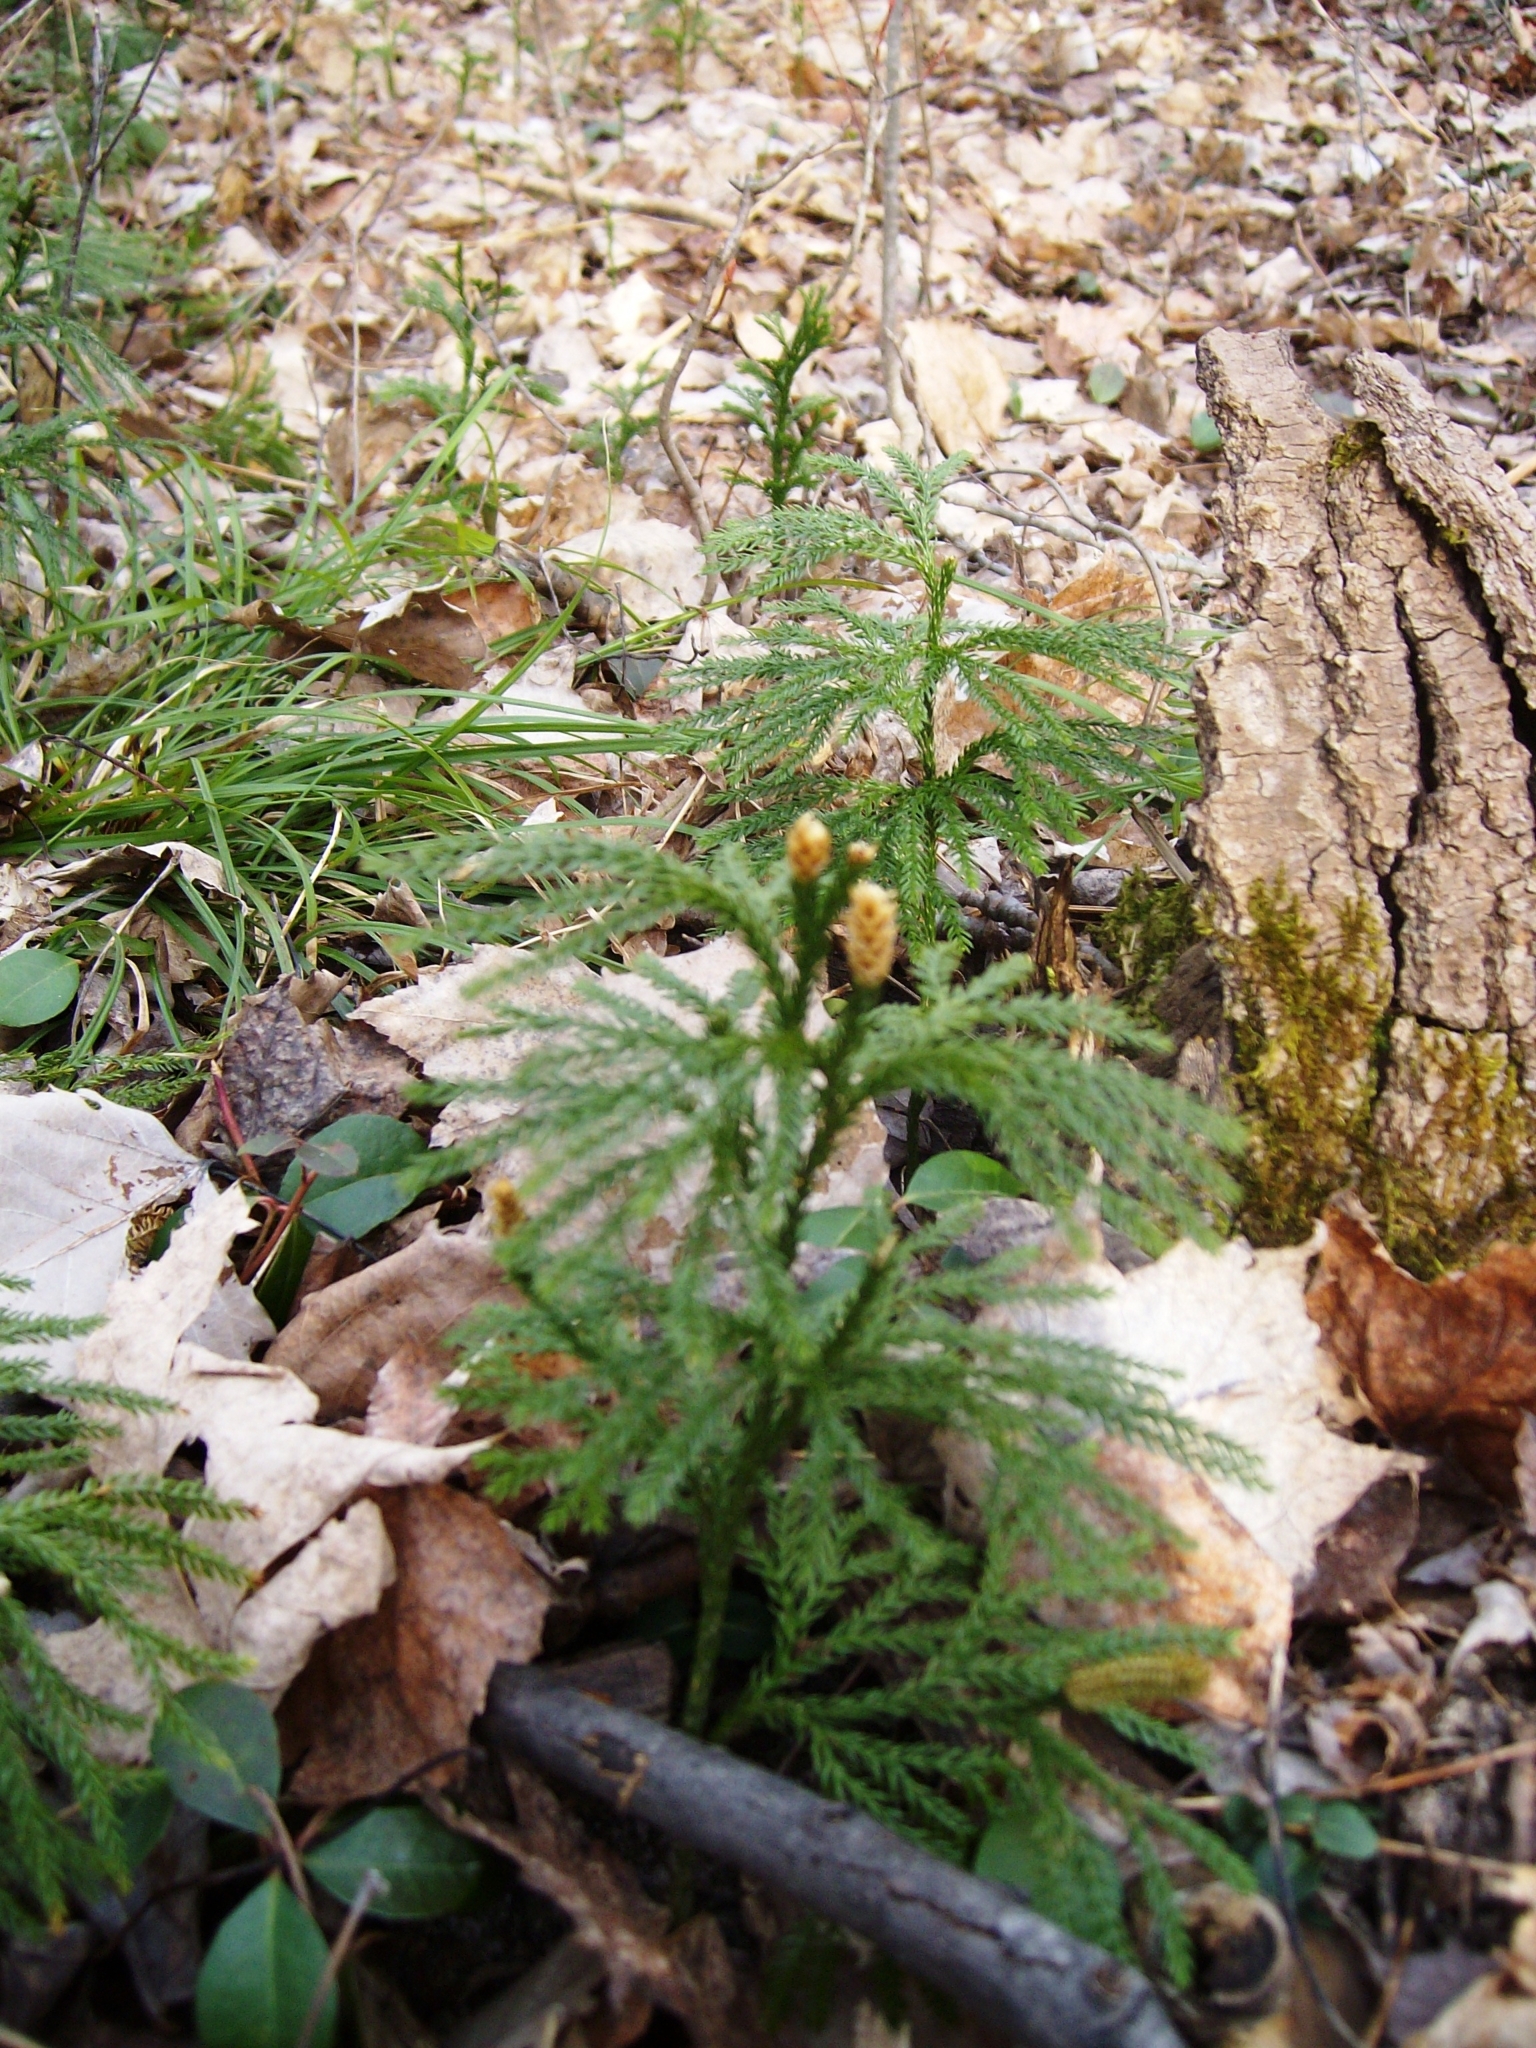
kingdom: Plantae
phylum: Tracheophyta
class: Lycopodiopsida
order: Lycopodiales
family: Lycopodiaceae
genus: Dendrolycopodium
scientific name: Dendrolycopodium obscurum
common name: Common ground-pine
